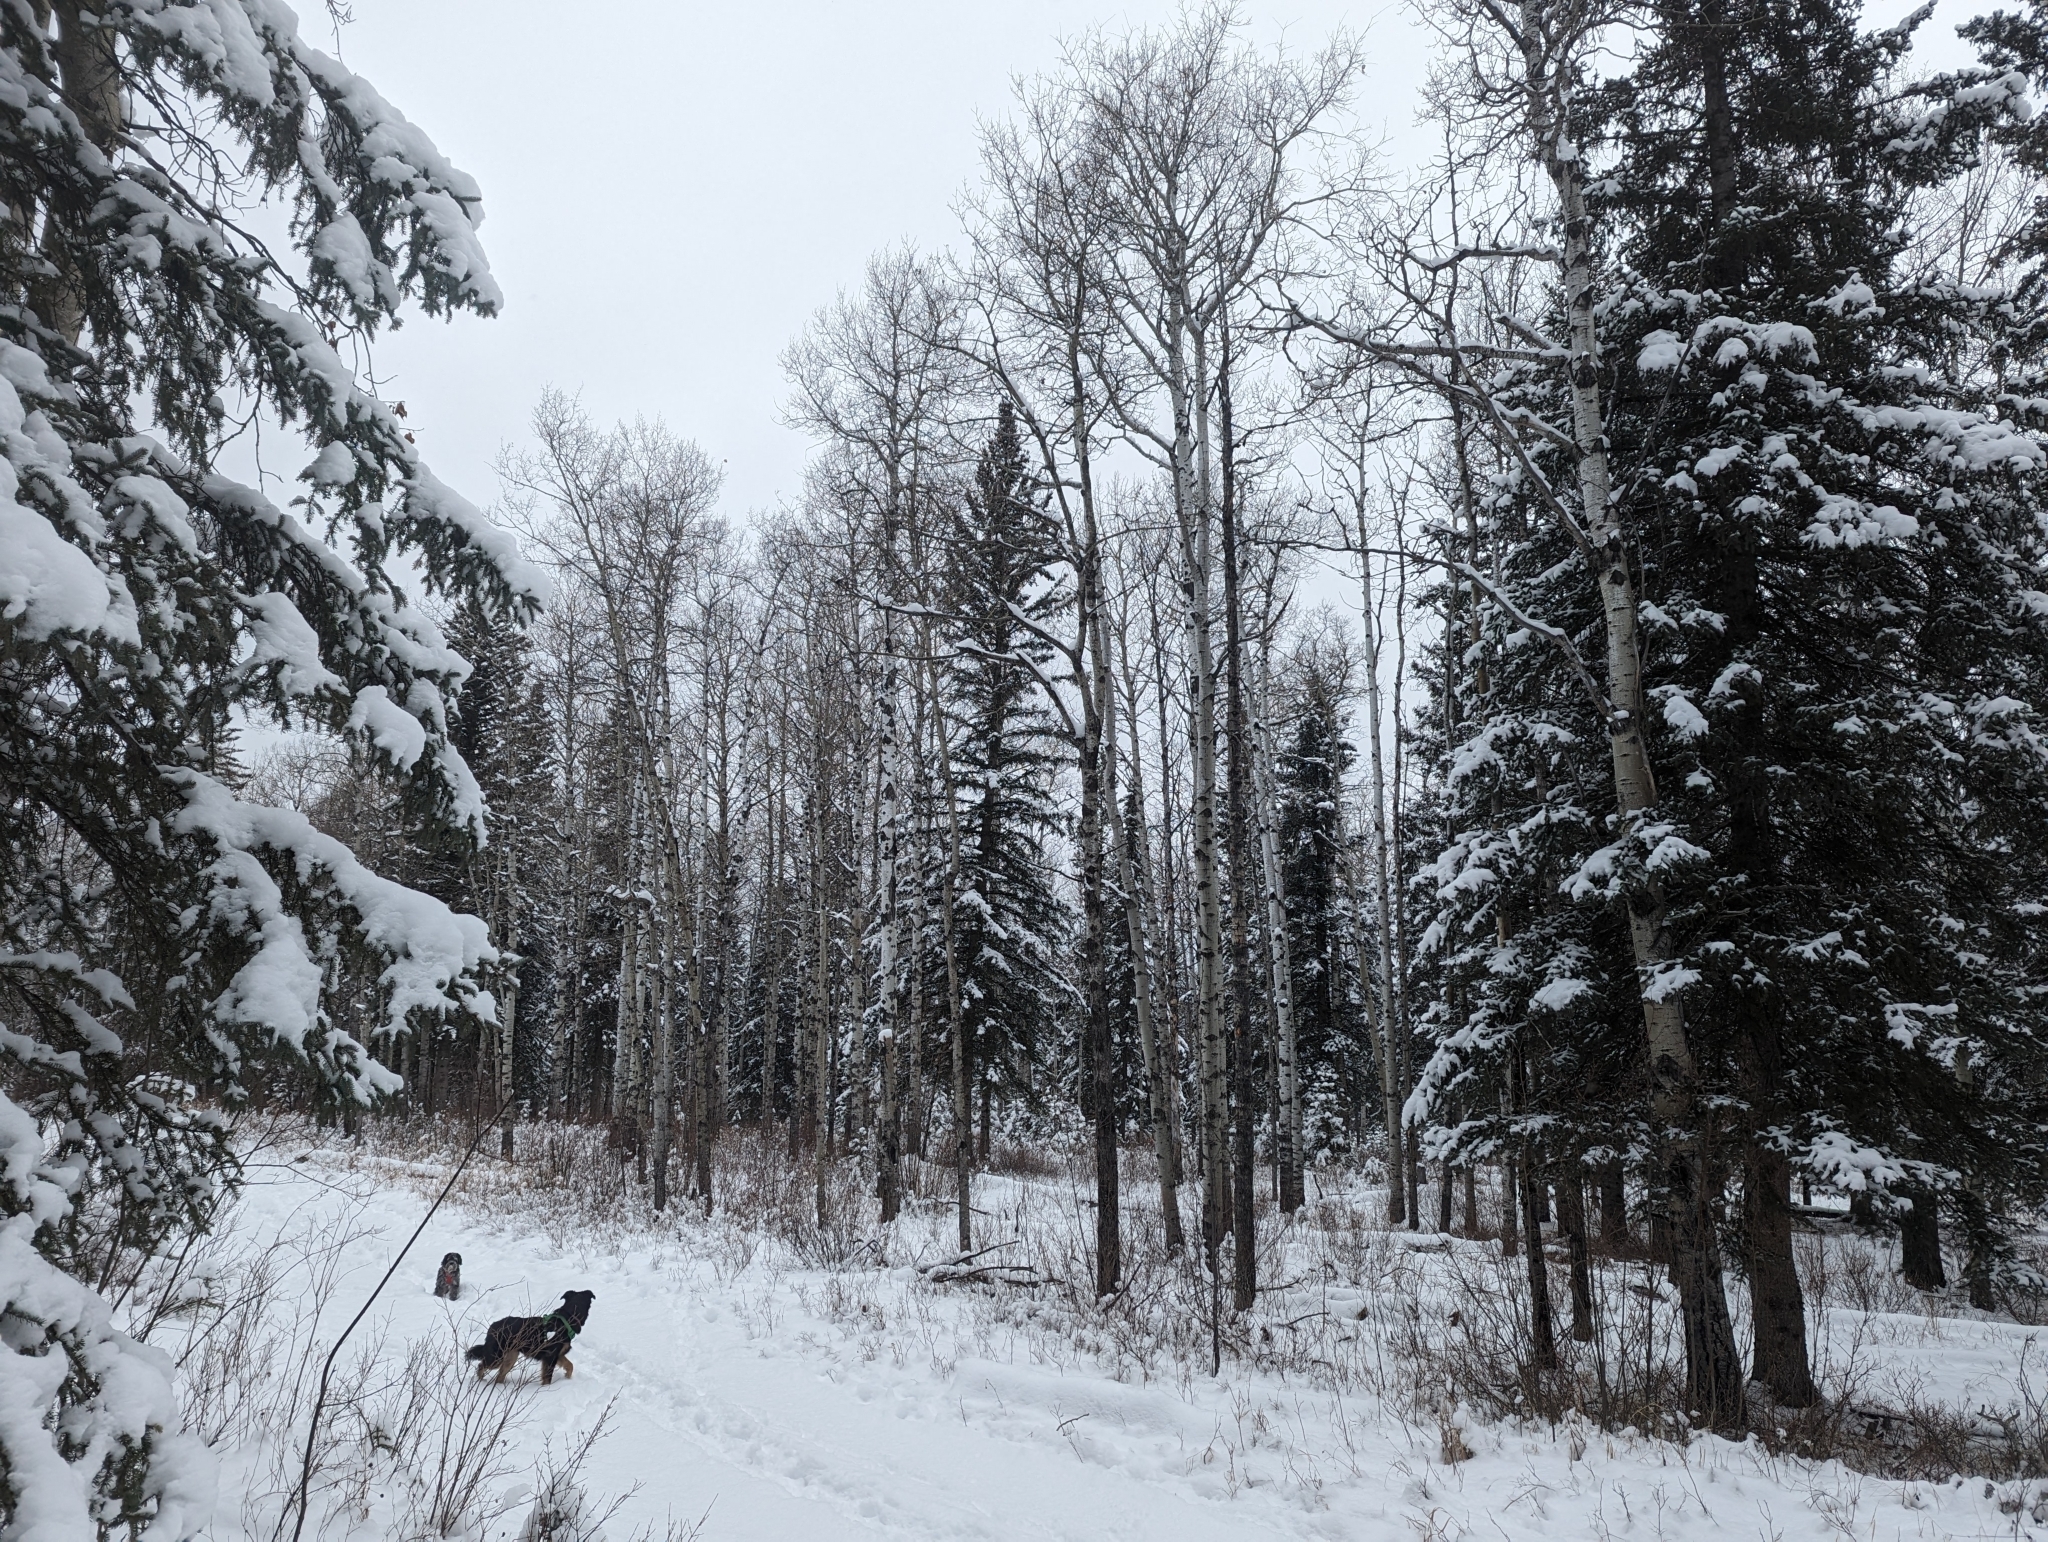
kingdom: Plantae
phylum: Tracheophyta
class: Magnoliopsida
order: Malpighiales
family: Salicaceae
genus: Populus
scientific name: Populus tremuloides
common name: Quaking aspen
